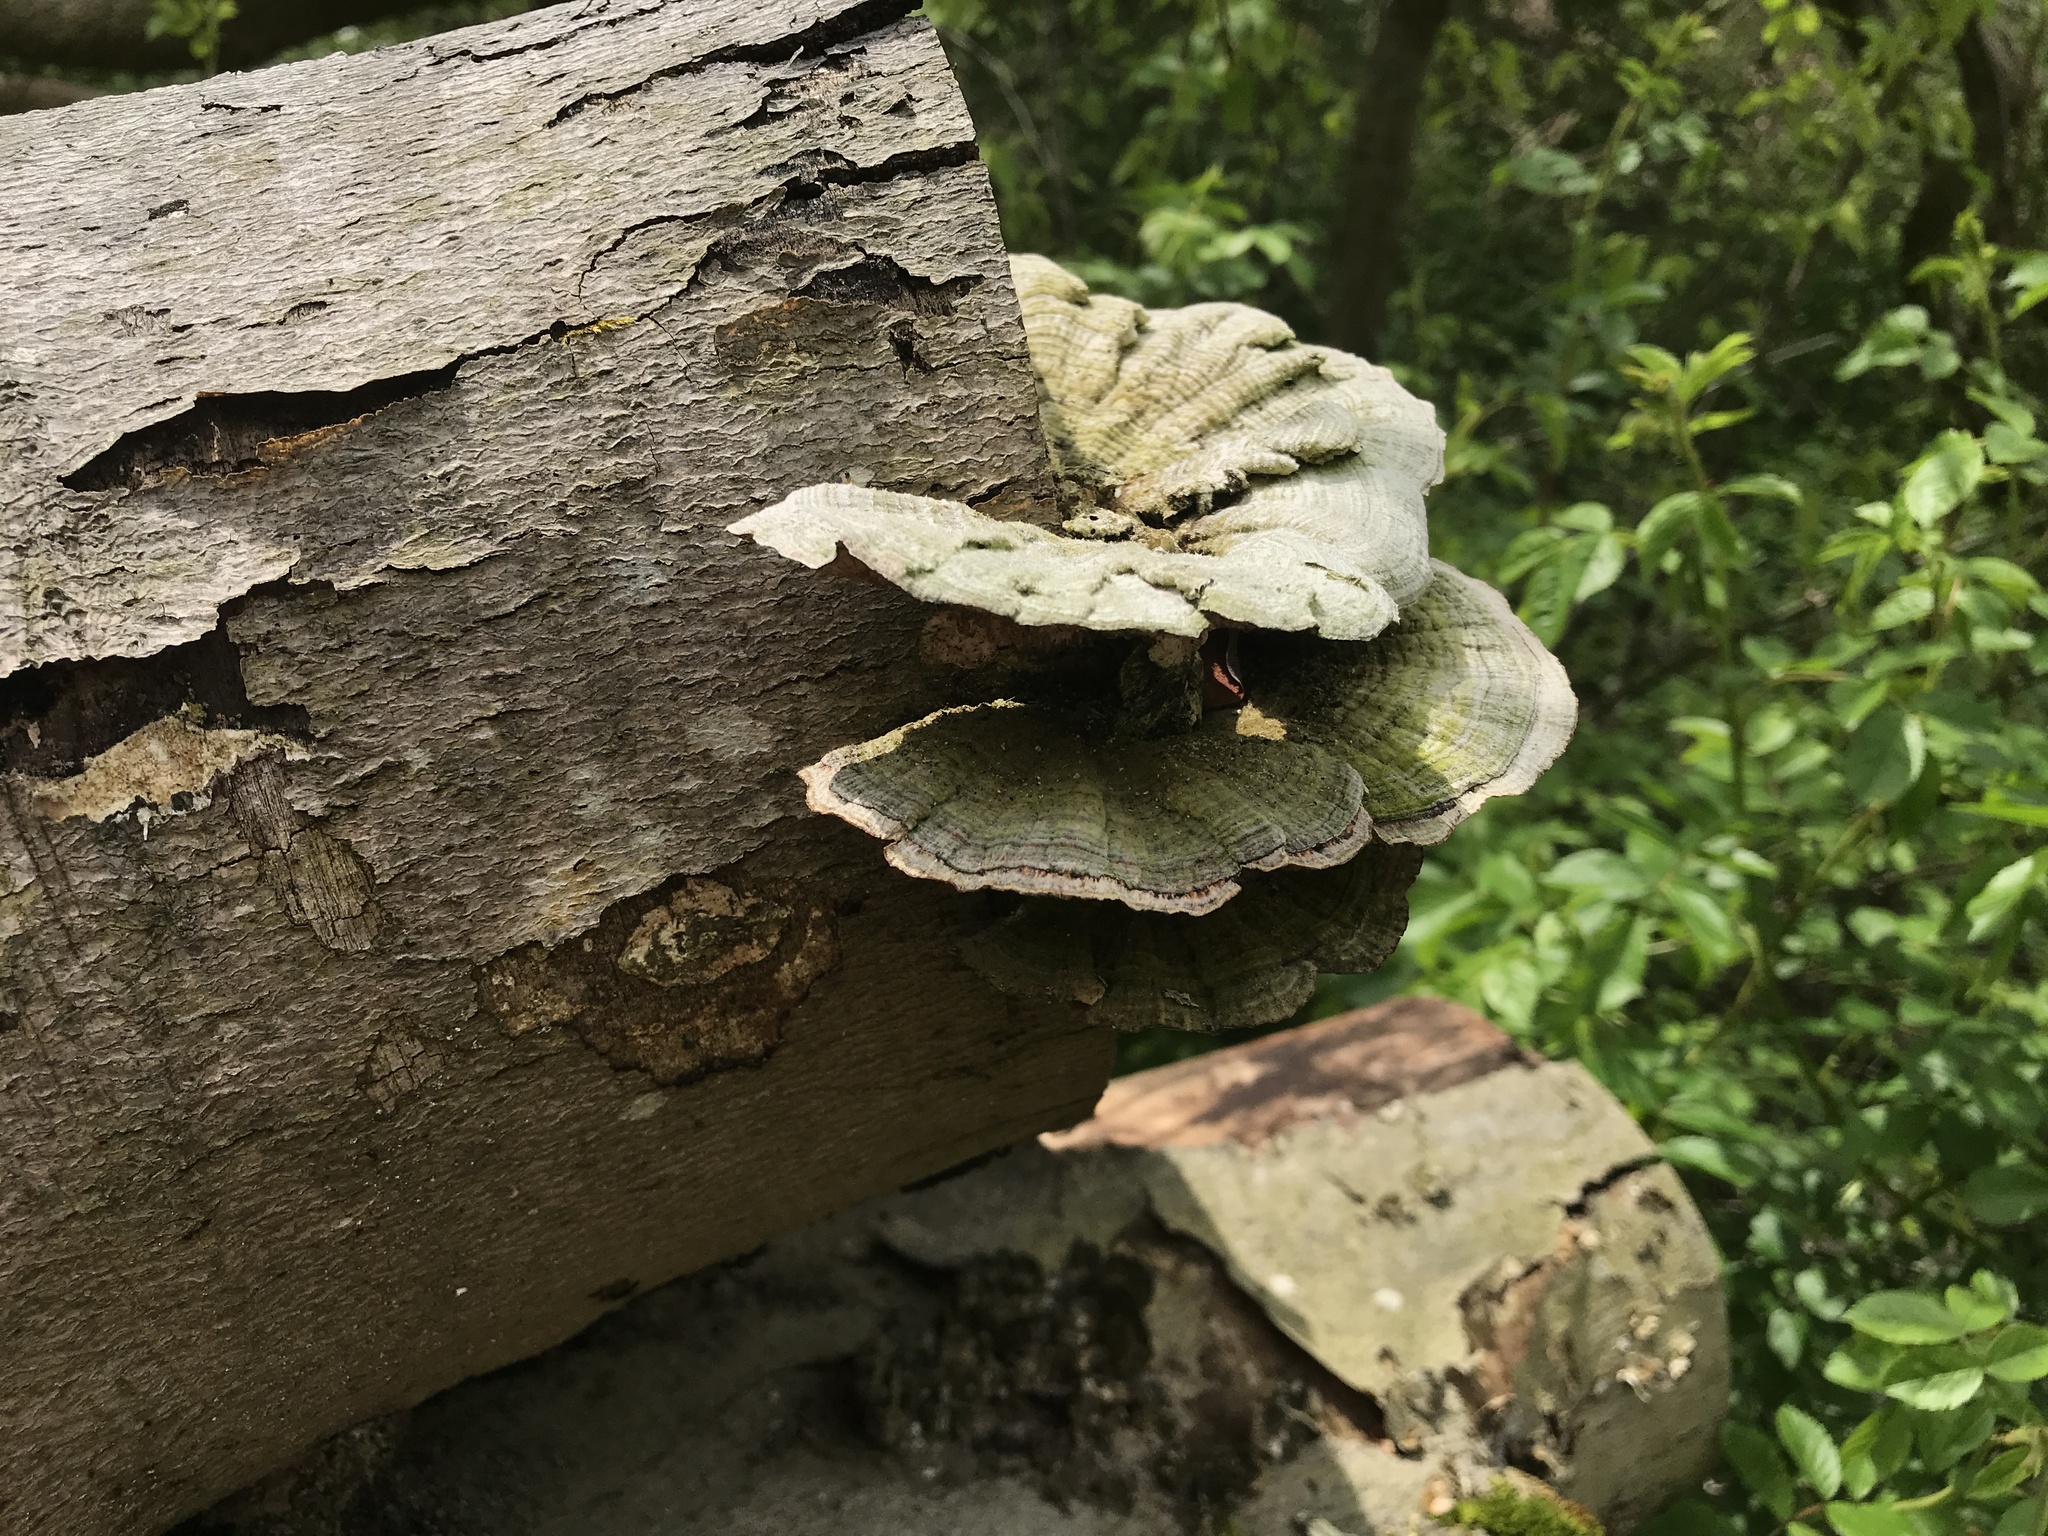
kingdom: Fungi
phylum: Basidiomycota
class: Agaricomycetes
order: Polyporales
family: Polyporaceae
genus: Lenzites
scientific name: Lenzites betulinus
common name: Birch mazegill
